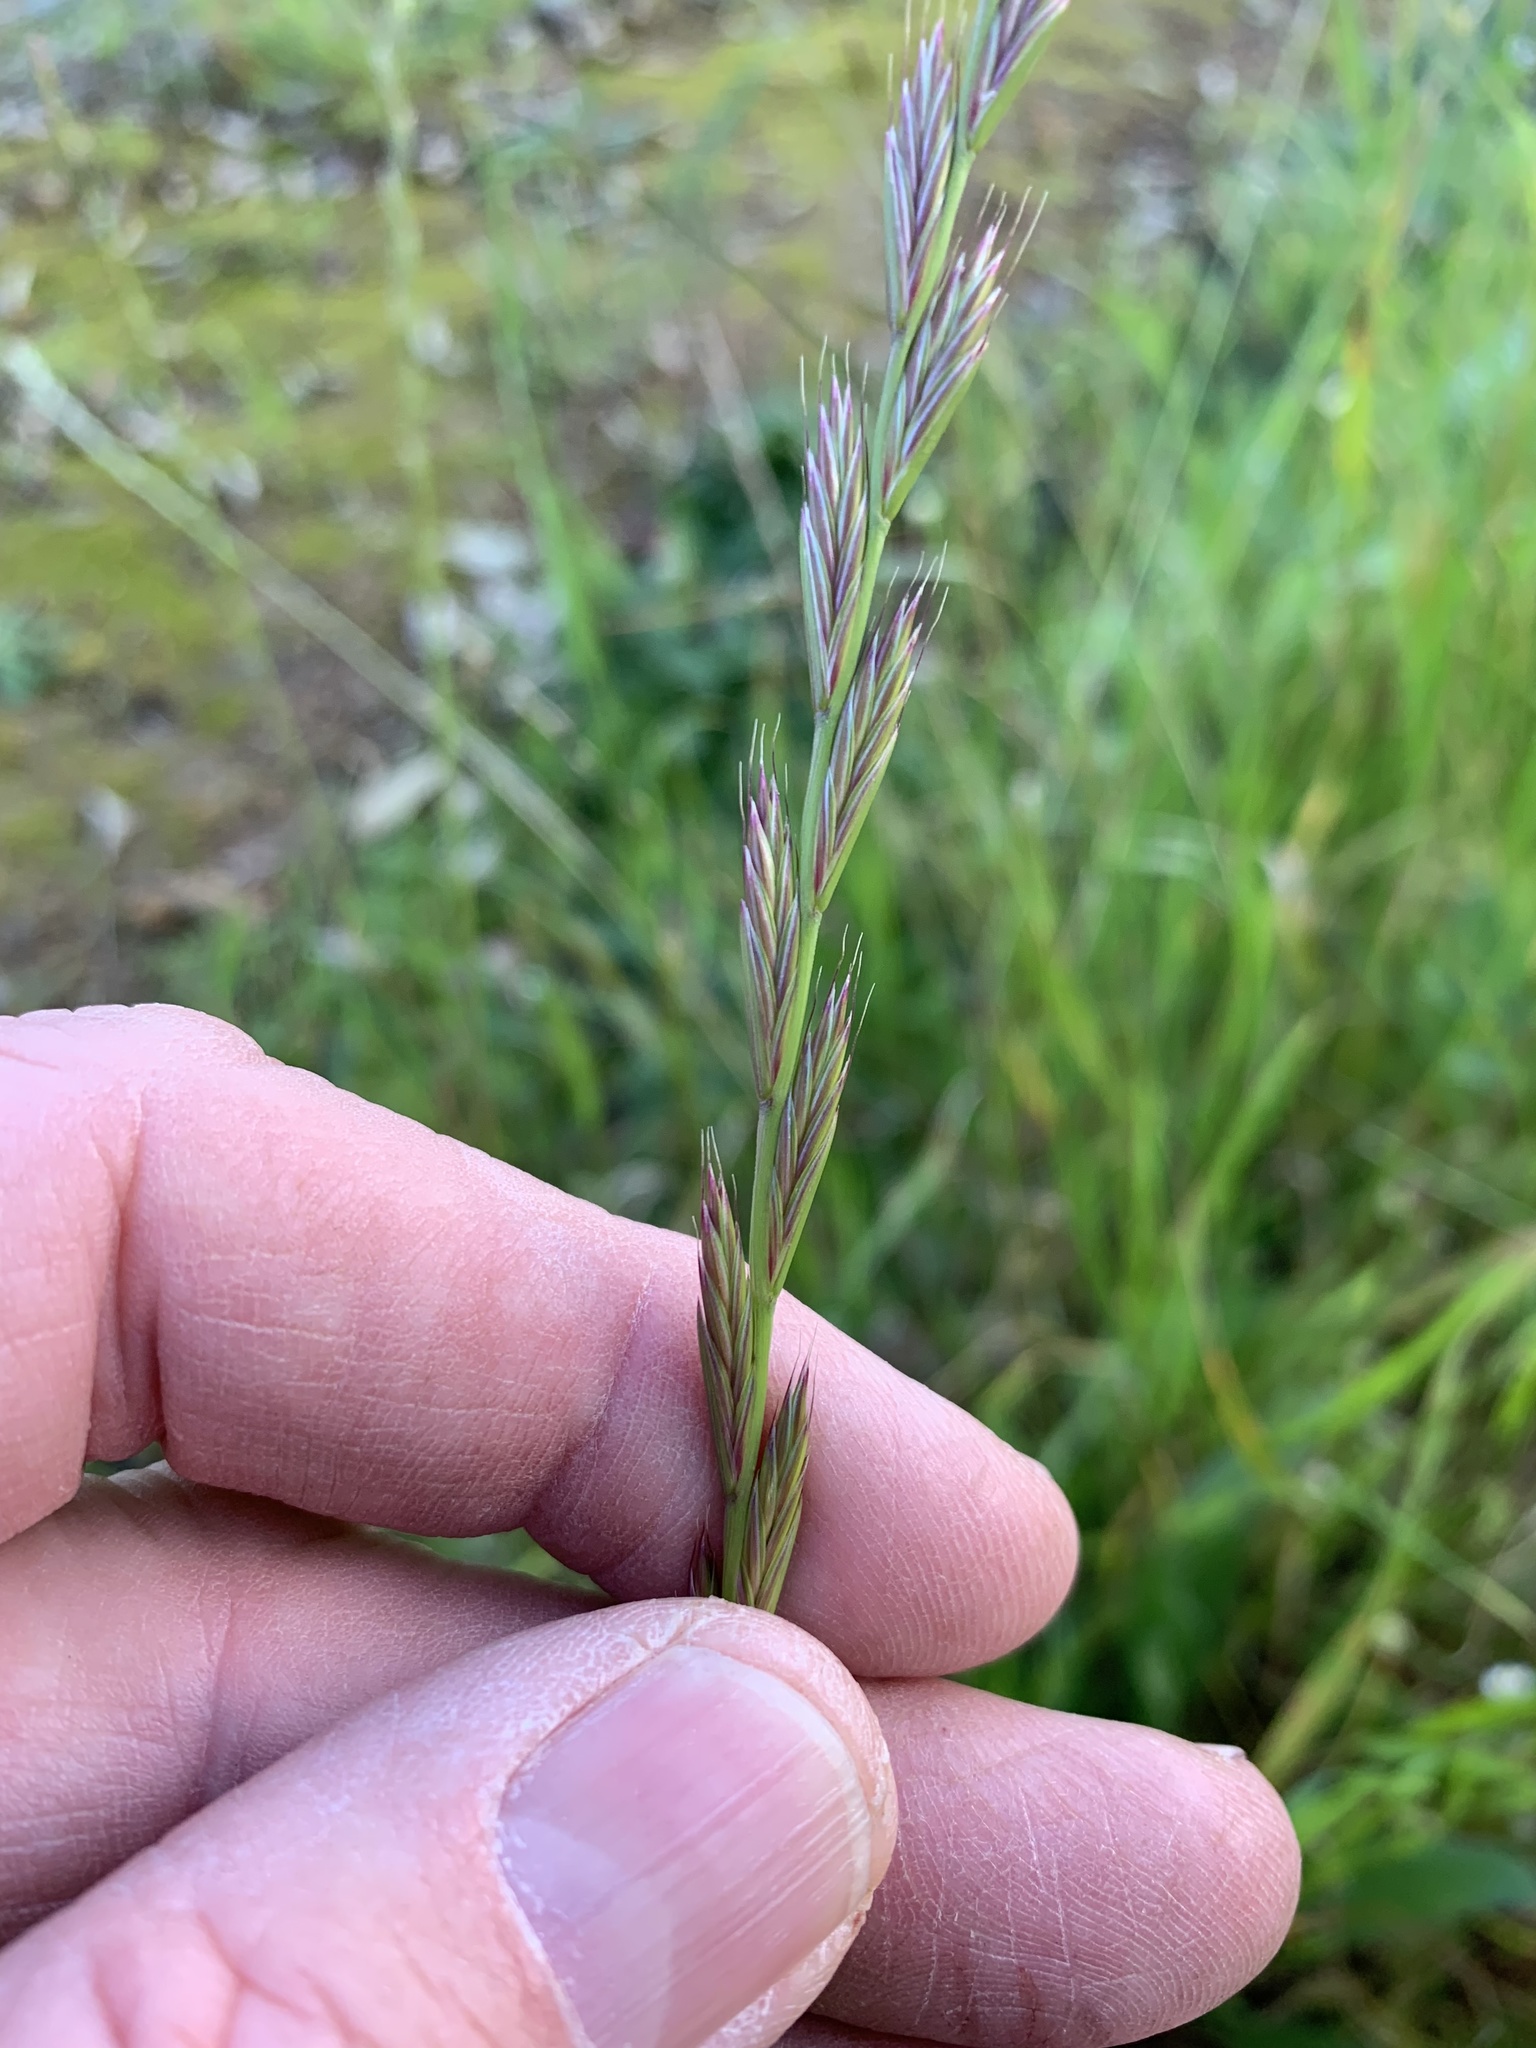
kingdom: Plantae
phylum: Tracheophyta
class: Liliopsida
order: Poales
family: Poaceae
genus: Lolium
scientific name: Lolium multiflorum
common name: Annual ryegrass
